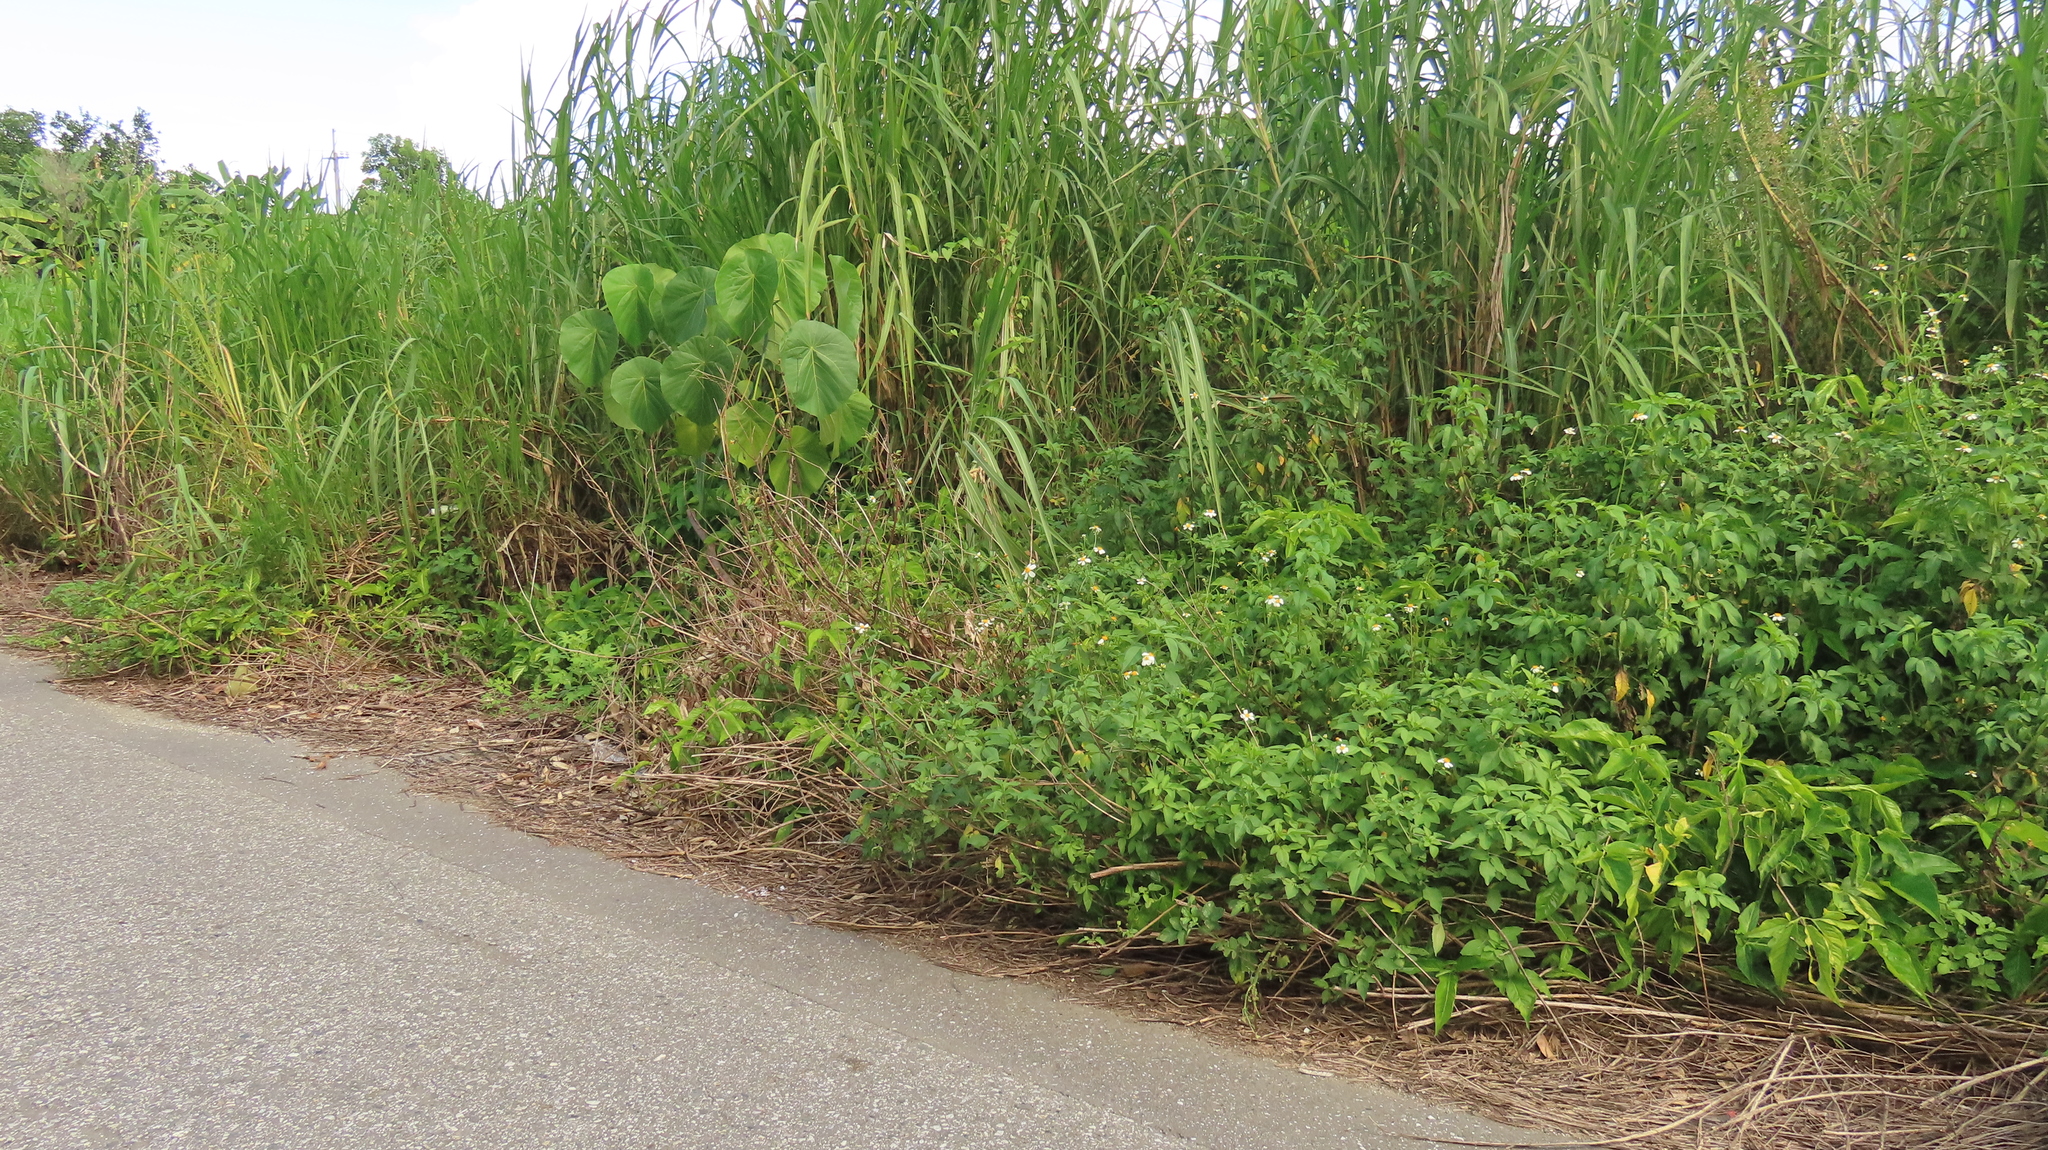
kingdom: Plantae
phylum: Tracheophyta
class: Liliopsida
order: Alismatales
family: Araceae
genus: Syngonium
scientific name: Syngonium angustatum
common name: Fivefingers
